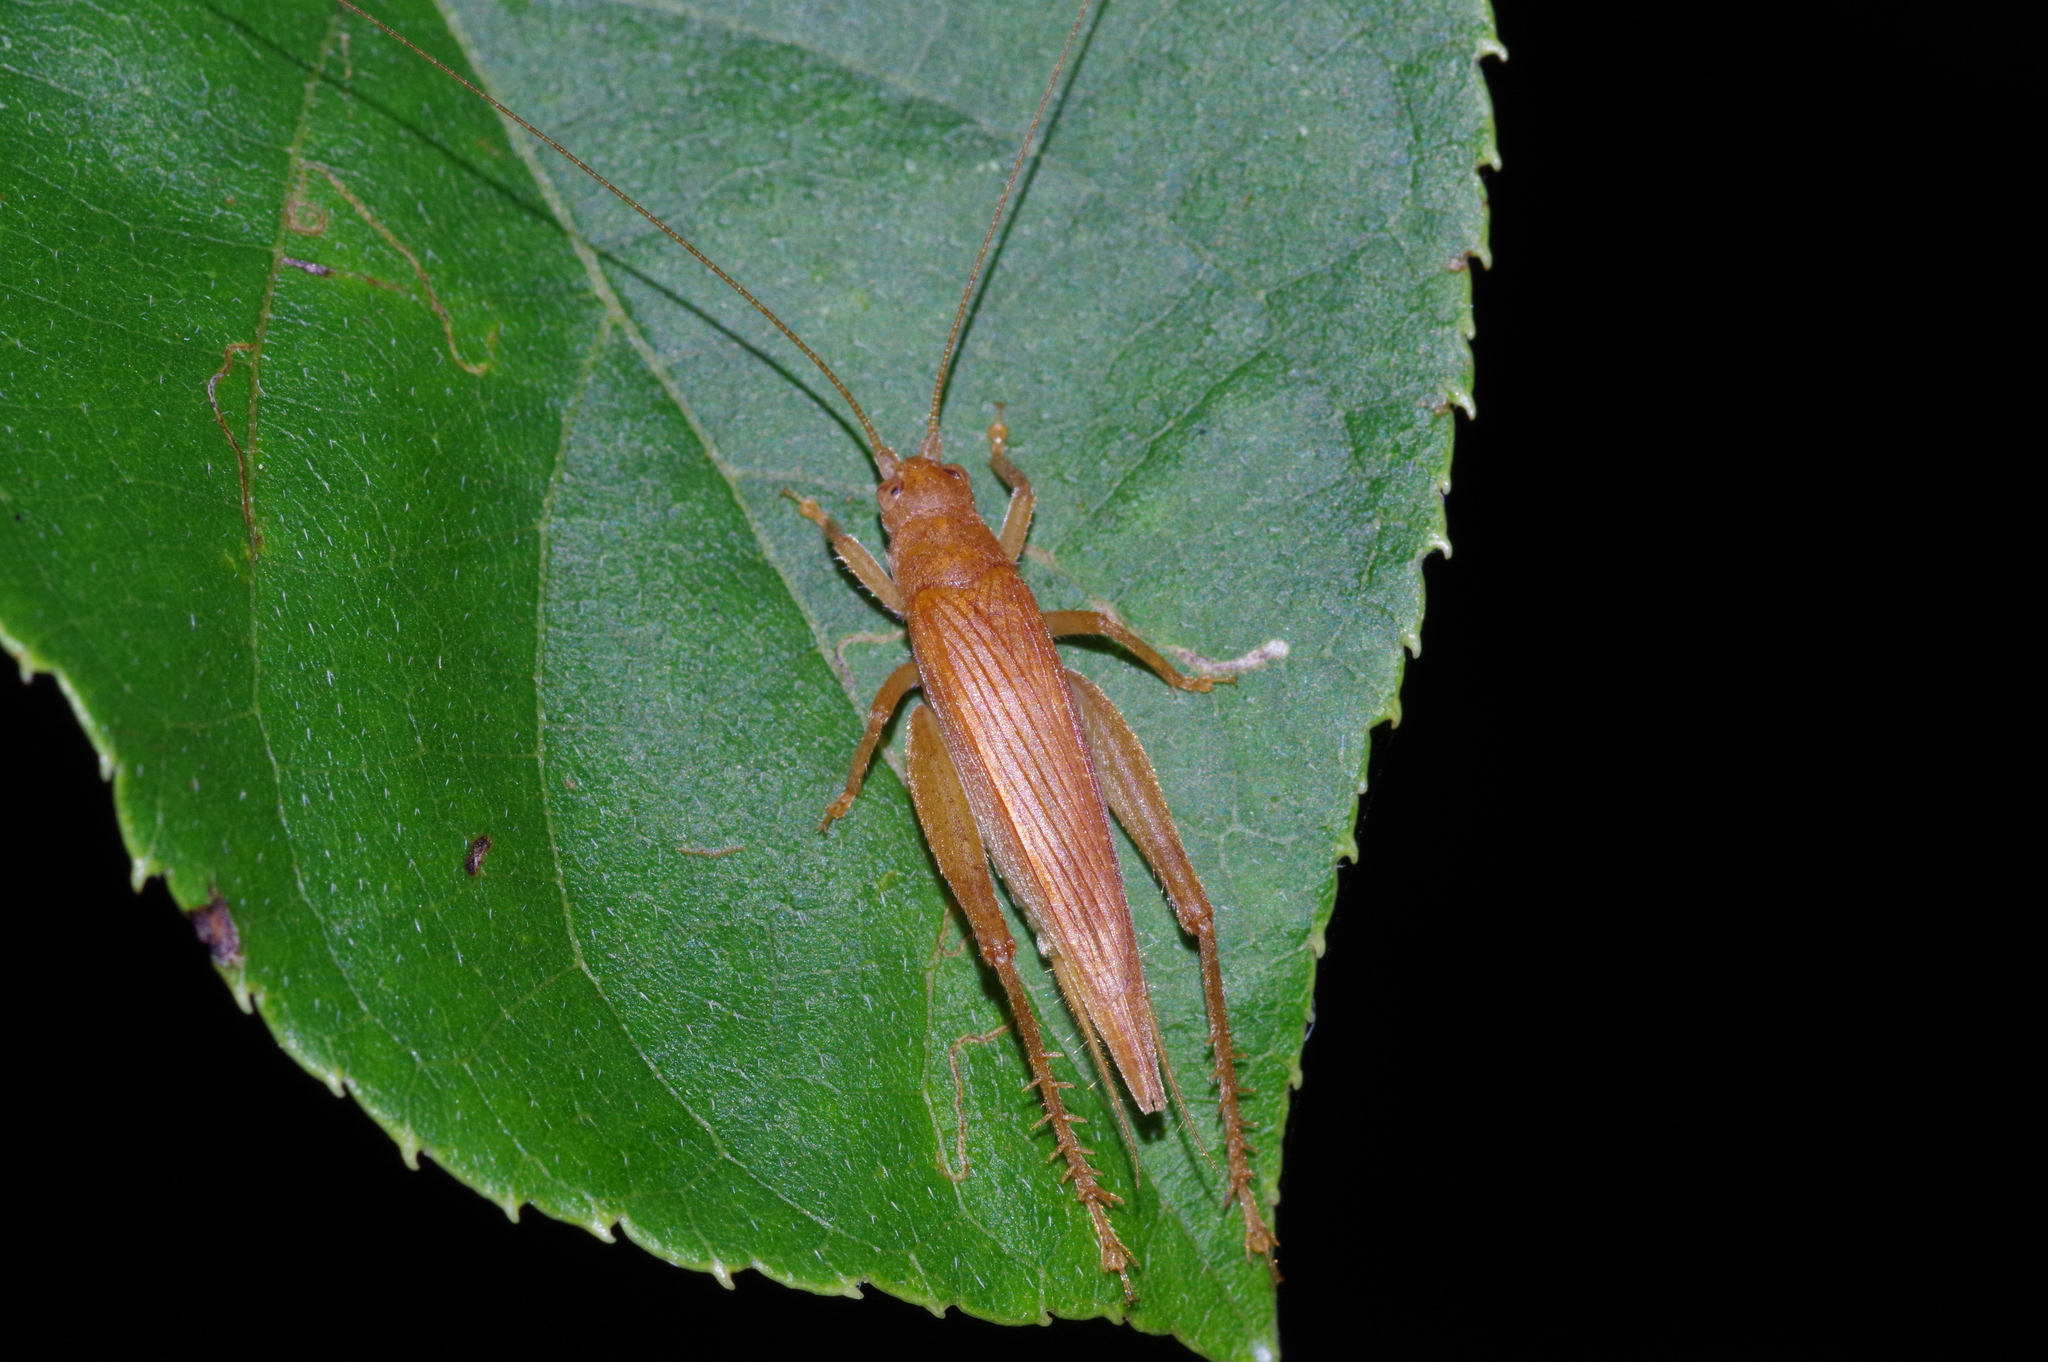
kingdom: Animalia
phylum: Arthropoda
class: Insecta
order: Orthoptera
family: Gryllidae
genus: Aphonoides
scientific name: Aphonoides rufescens
